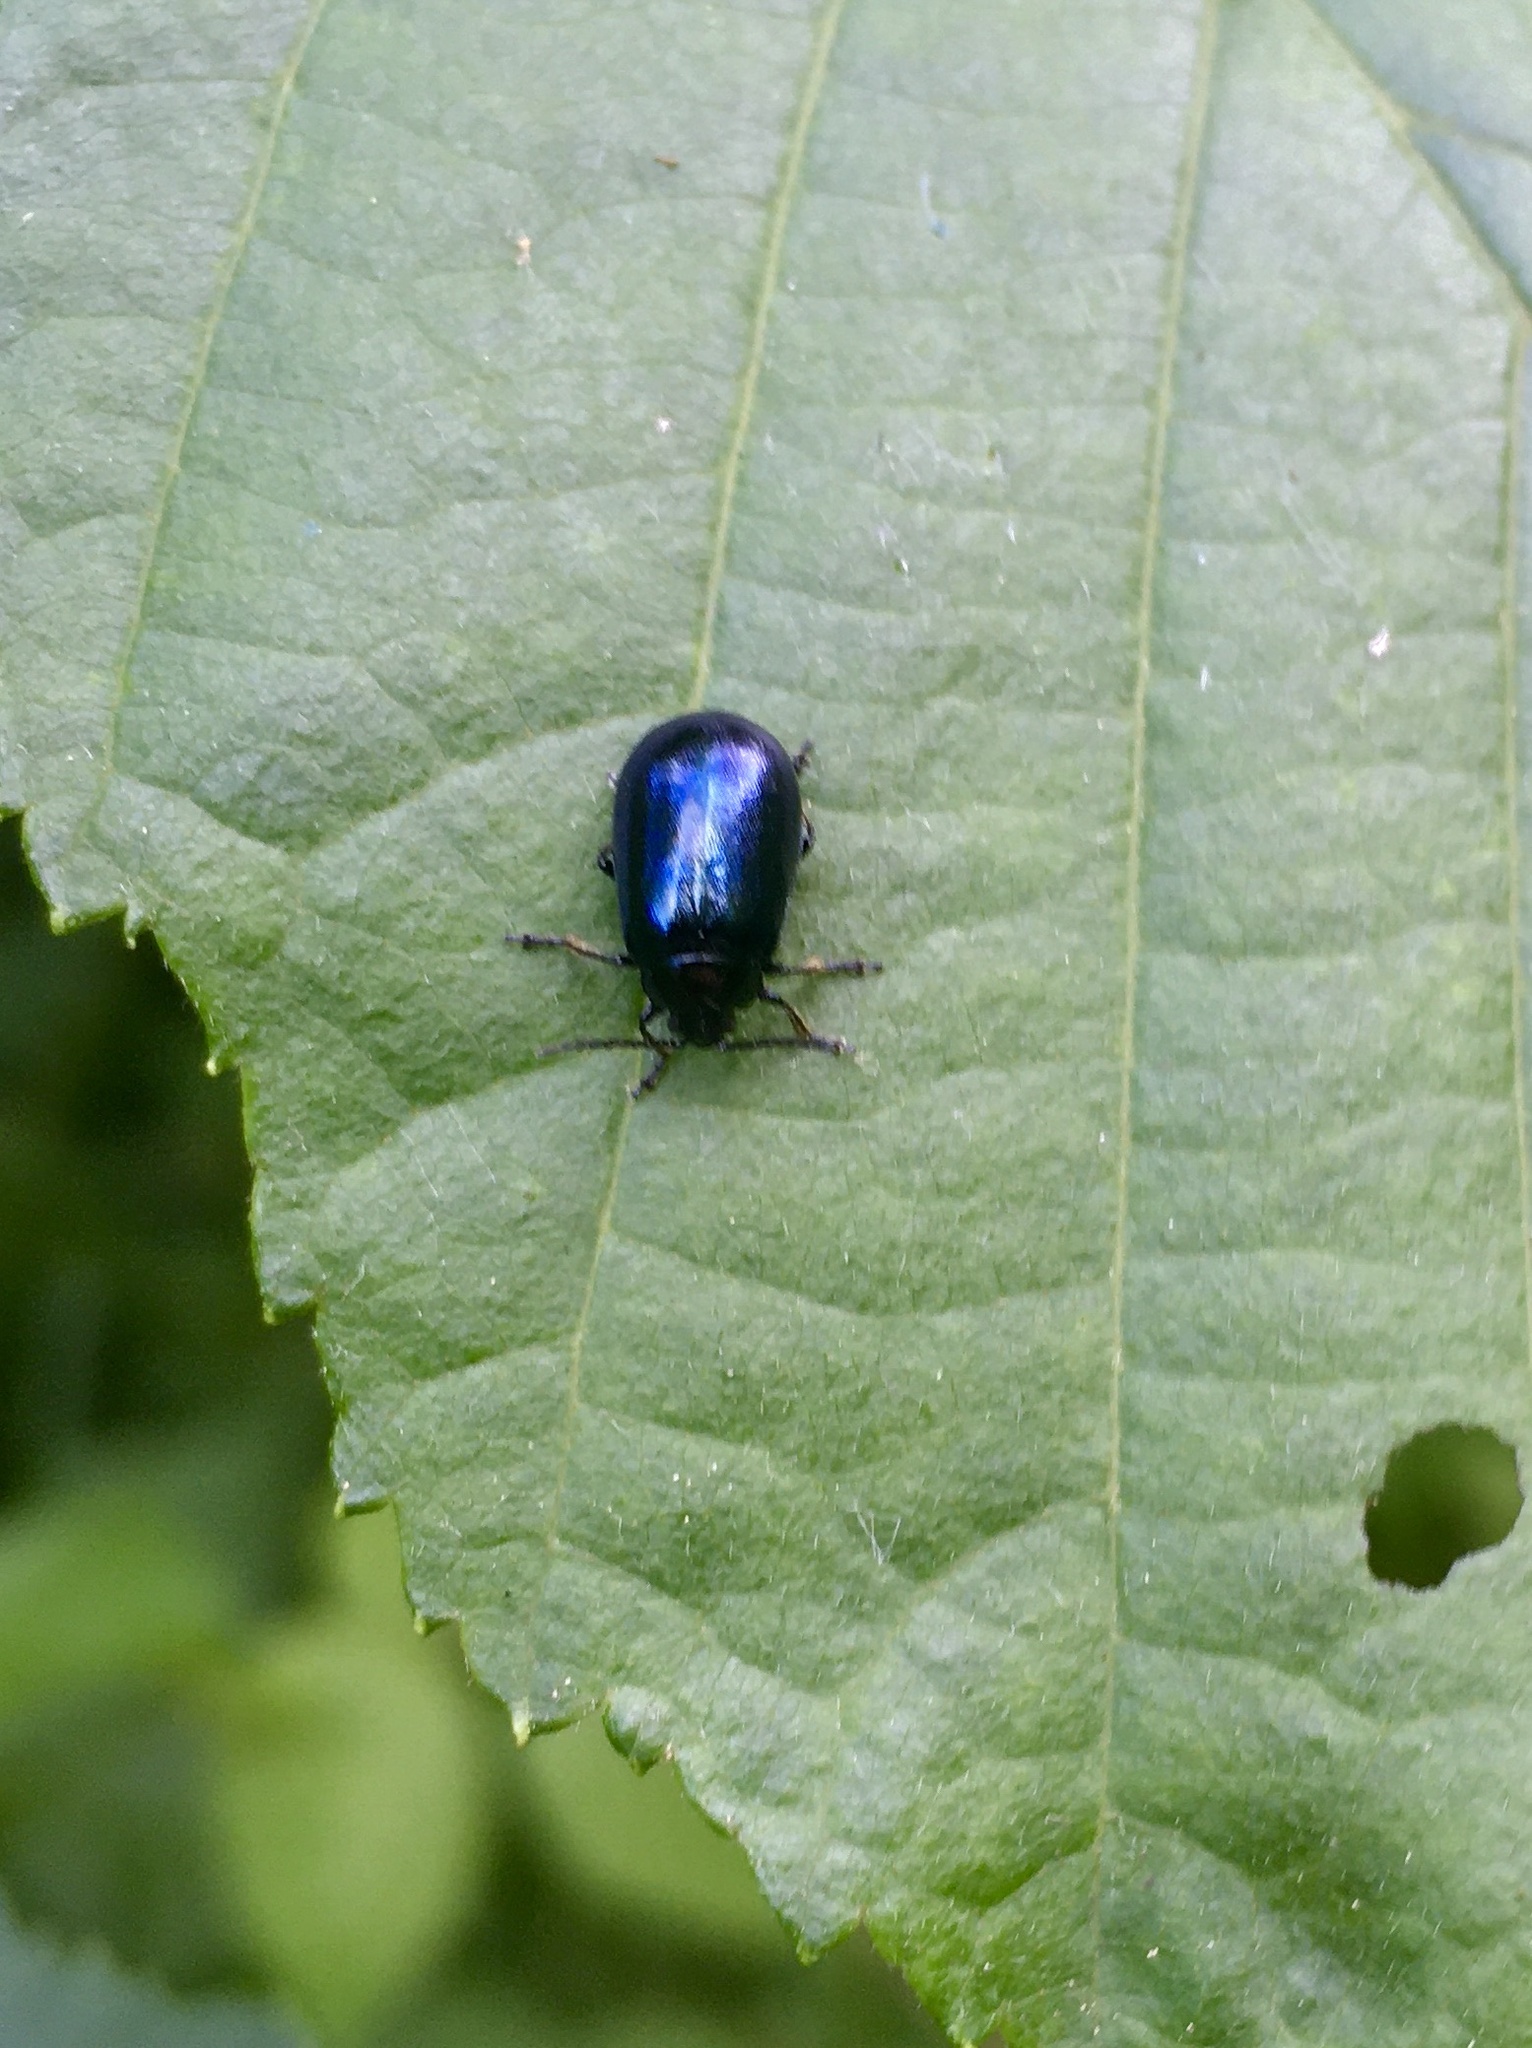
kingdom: Animalia
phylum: Arthropoda
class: Insecta
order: Coleoptera
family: Chrysomelidae
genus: Agelastica
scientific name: Agelastica alni
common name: Alder leaf beetle
